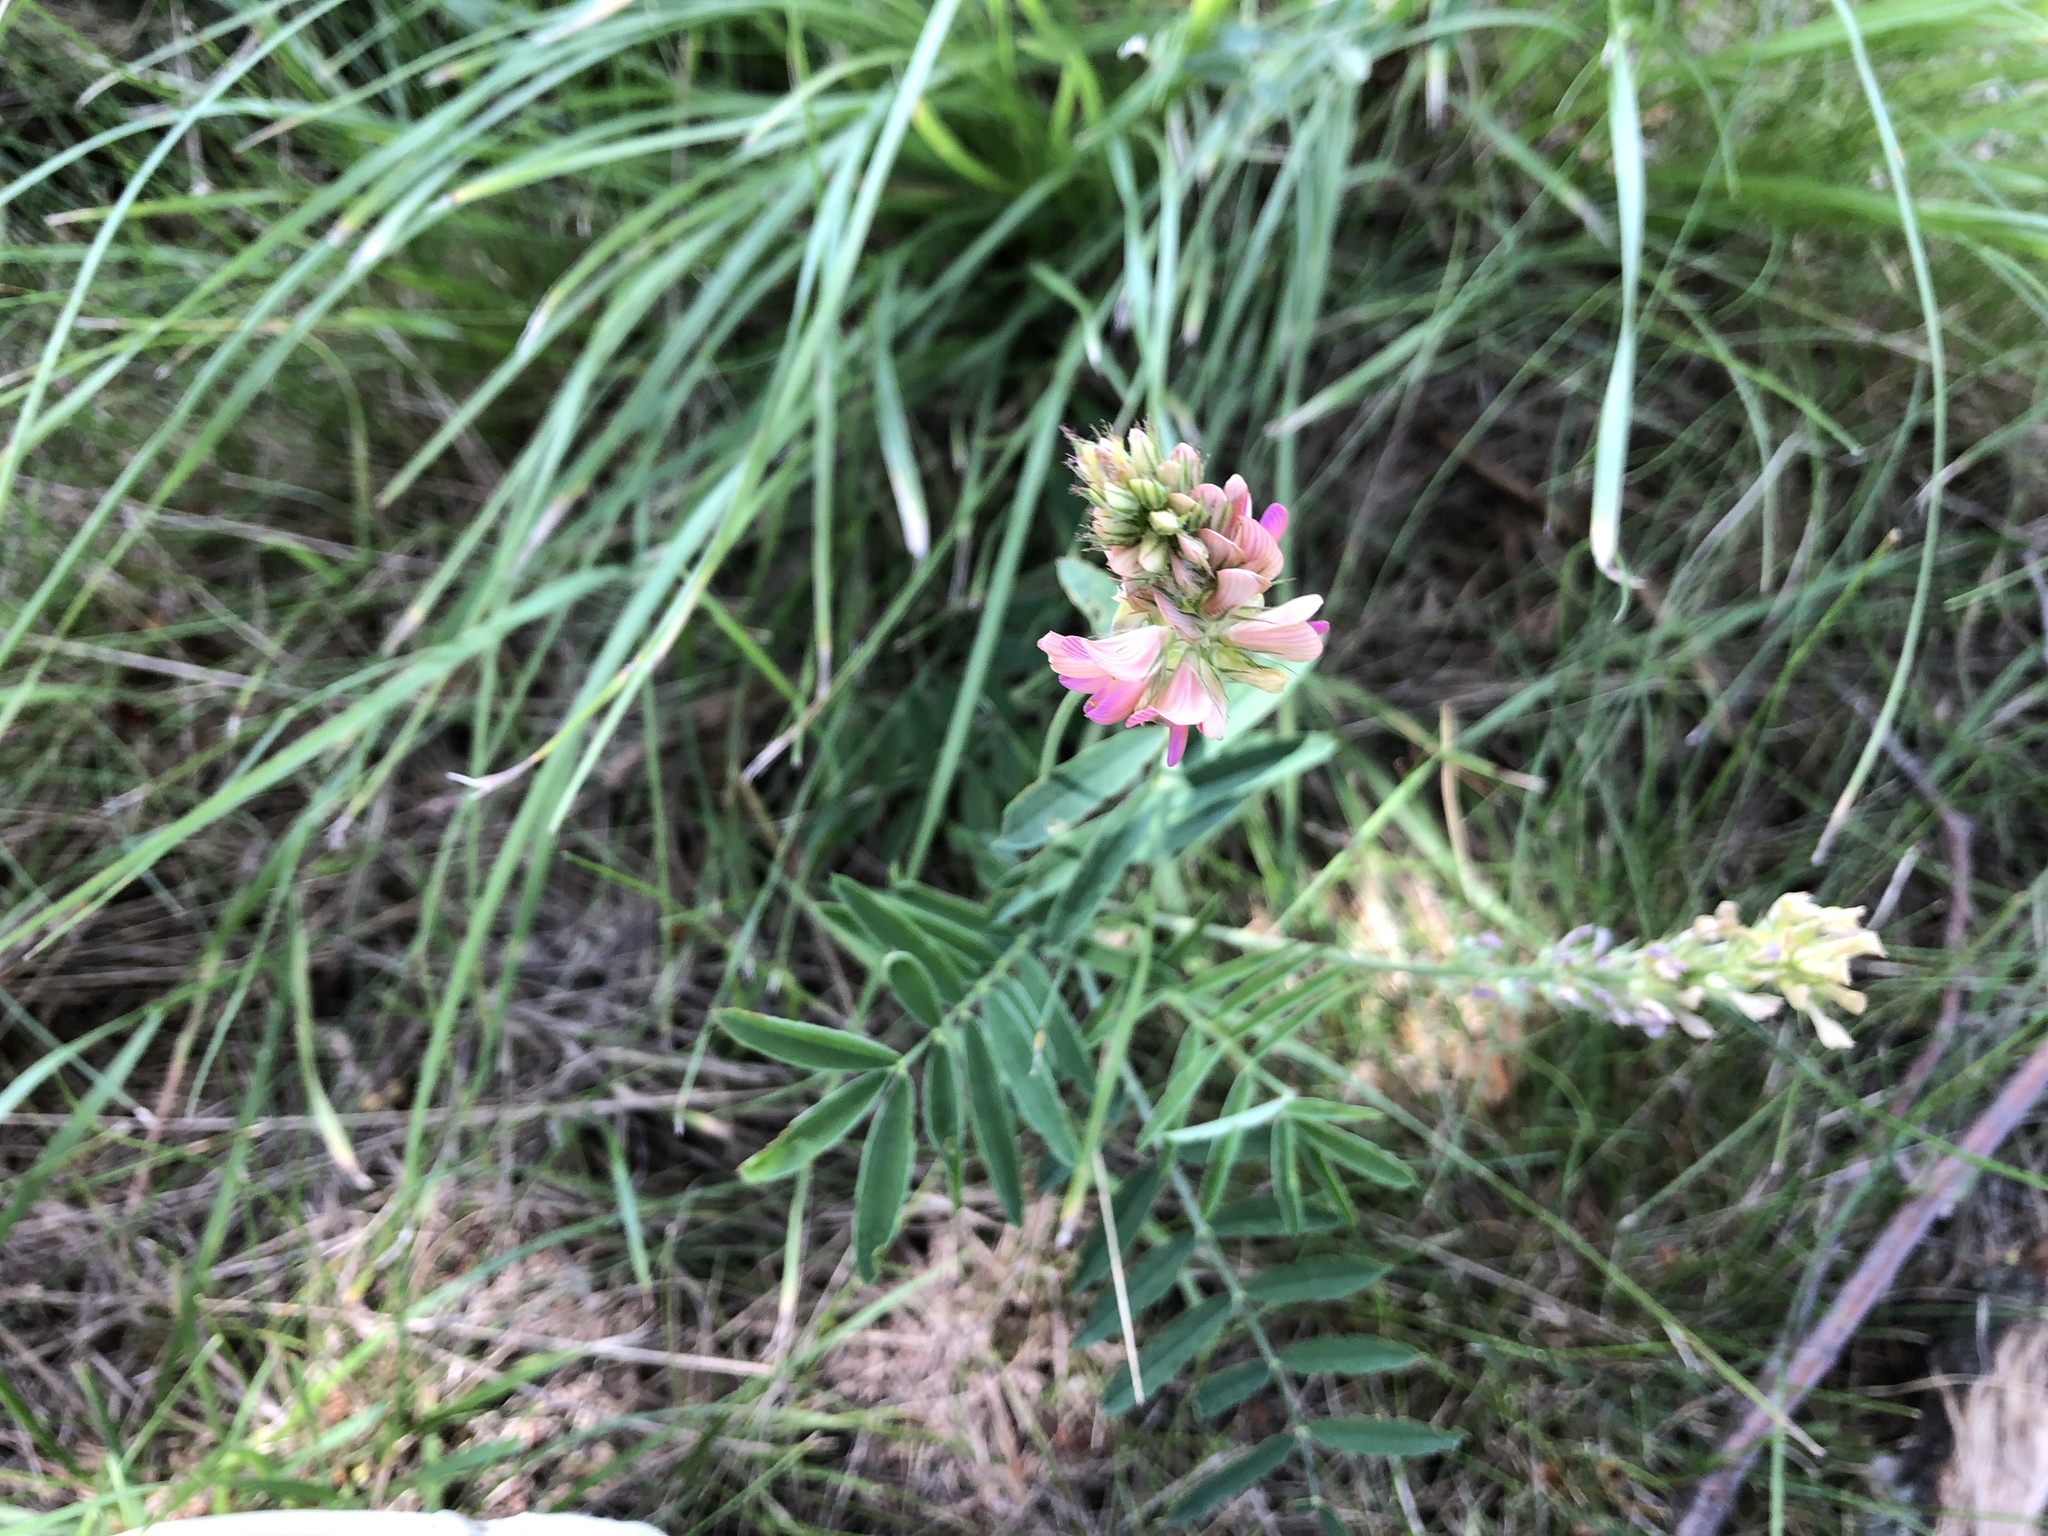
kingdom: Plantae
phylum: Tracheophyta
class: Magnoliopsida
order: Fabales
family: Fabaceae
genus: Onobrychis
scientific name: Onobrychis viciifolia
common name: Sainfoin
